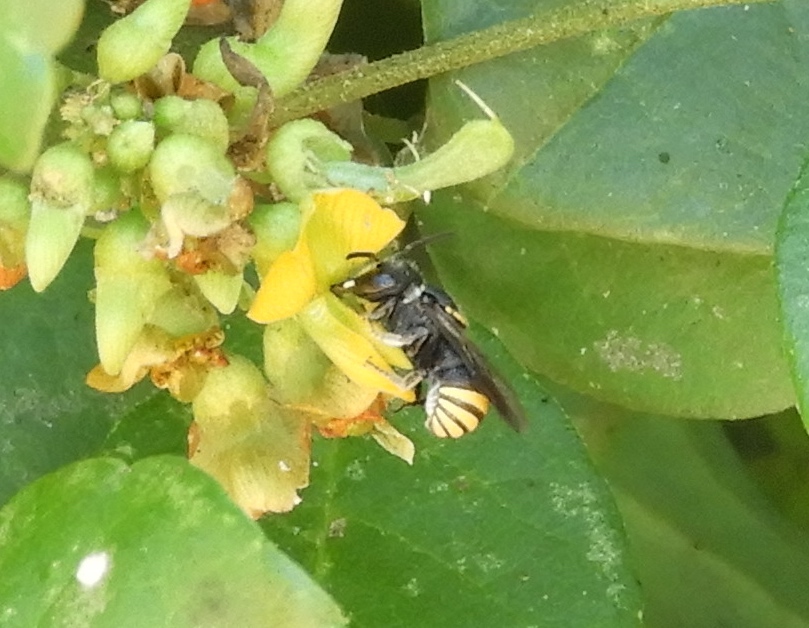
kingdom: Animalia
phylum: Arthropoda
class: Insecta
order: Hymenoptera
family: Vespidae
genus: Brachygastra
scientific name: Brachygastra mellifica
